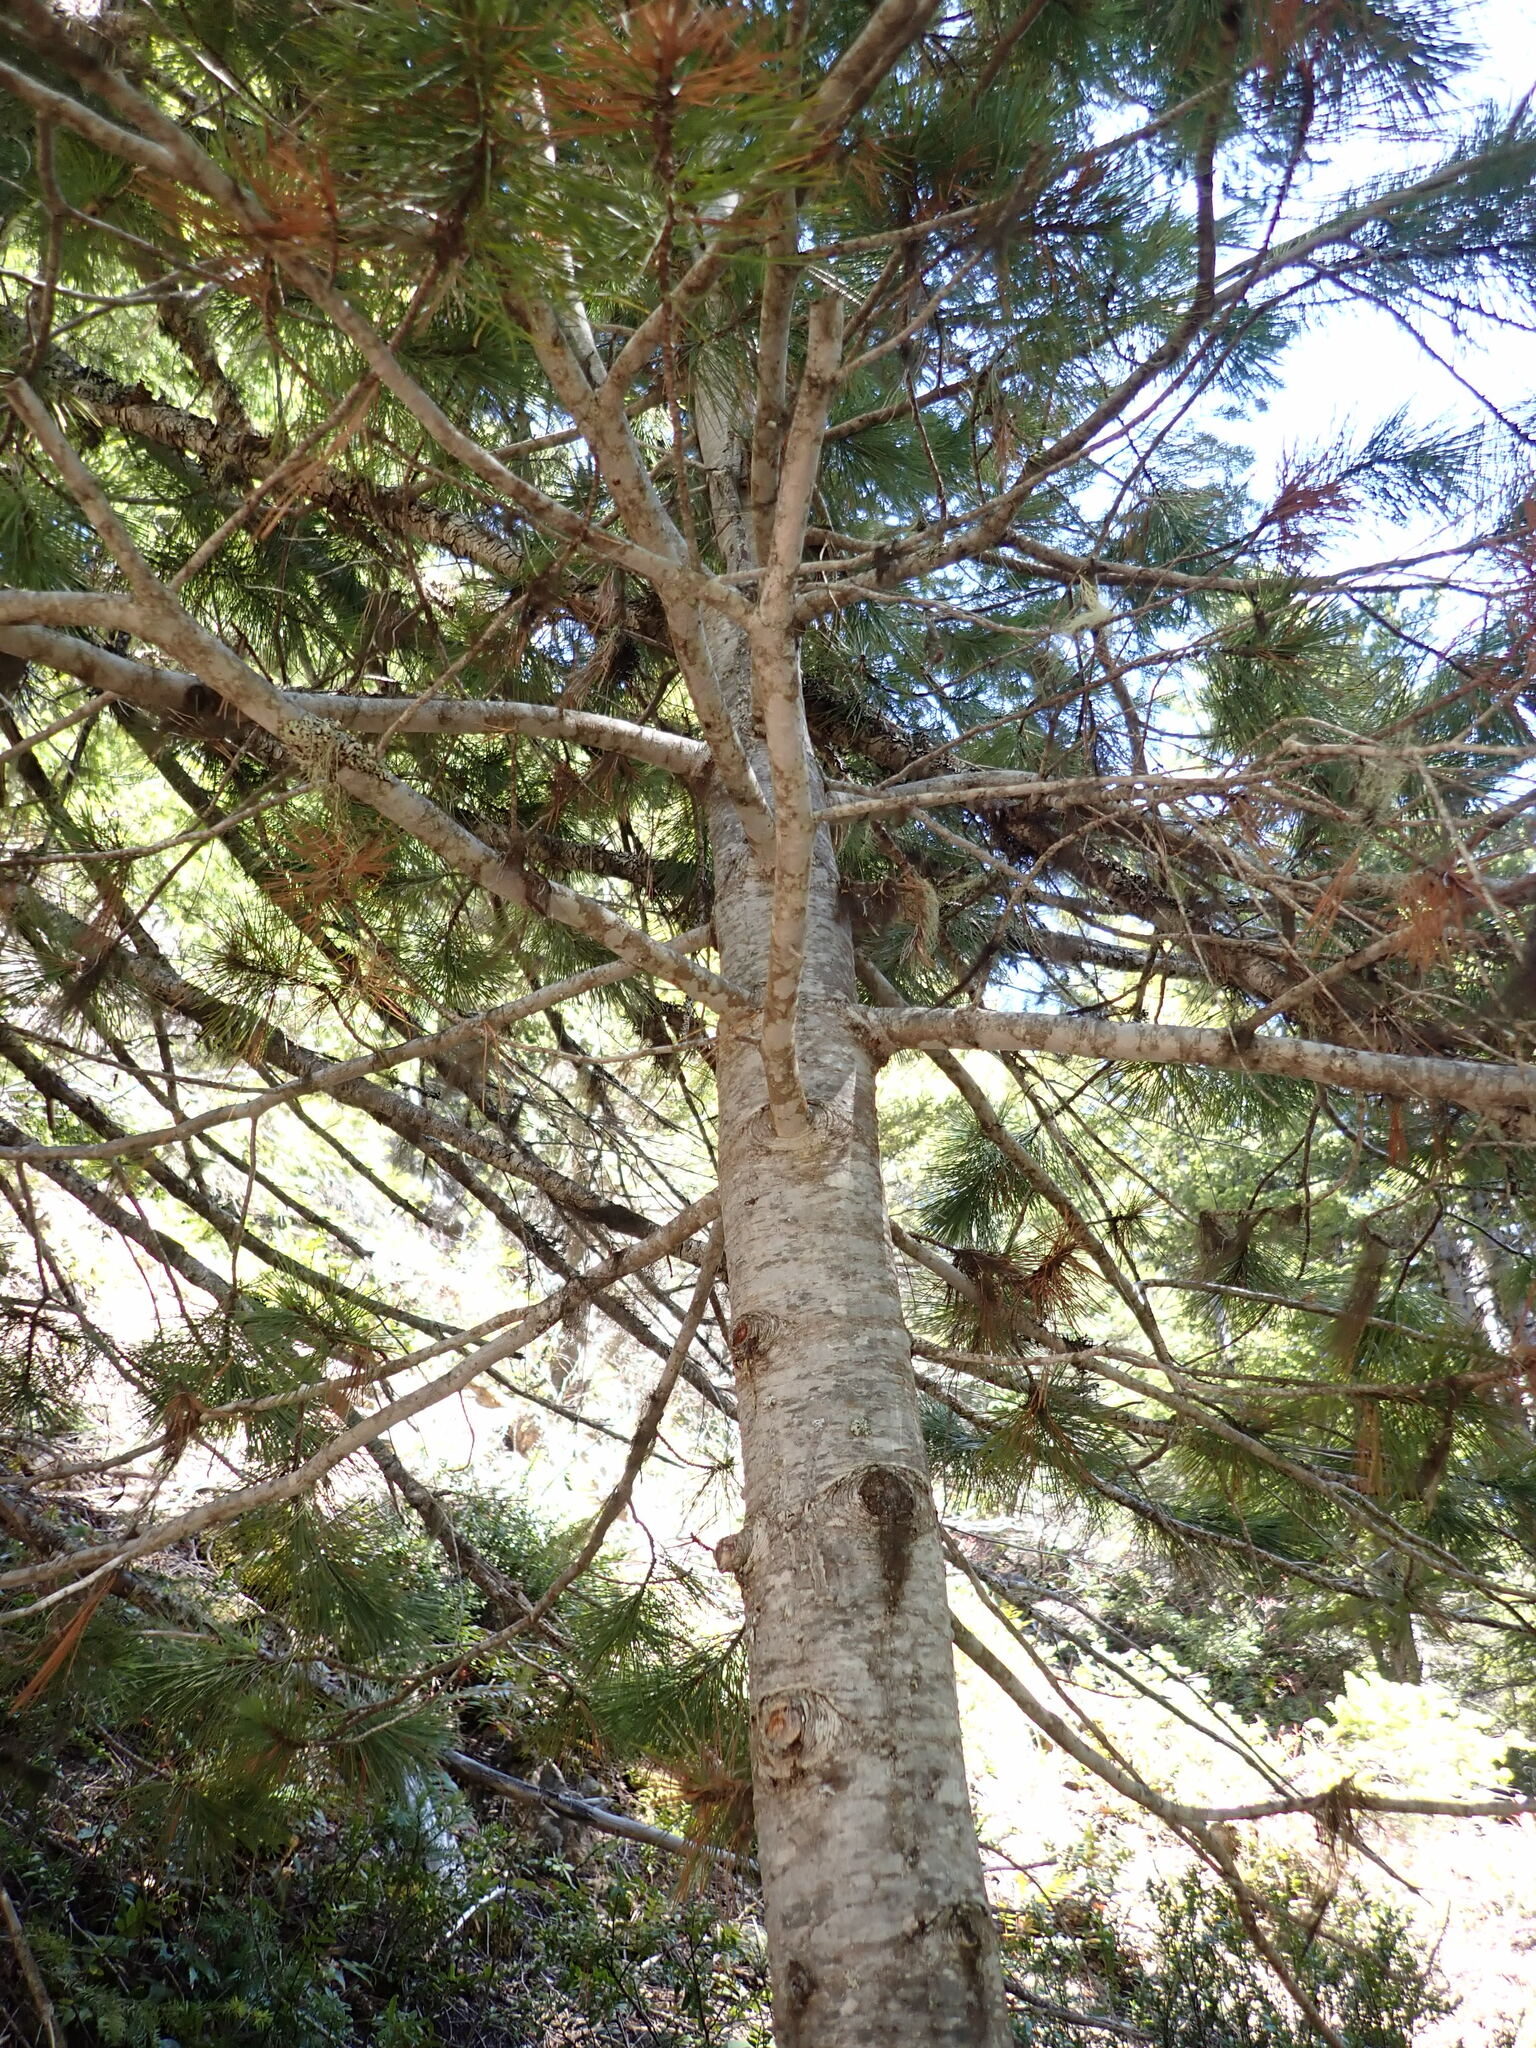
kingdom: Plantae
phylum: Tracheophyta
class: Pinopsida
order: Pinales
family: Pinaceae
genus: Pinus
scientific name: Pinus monticola
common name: Western white pine
